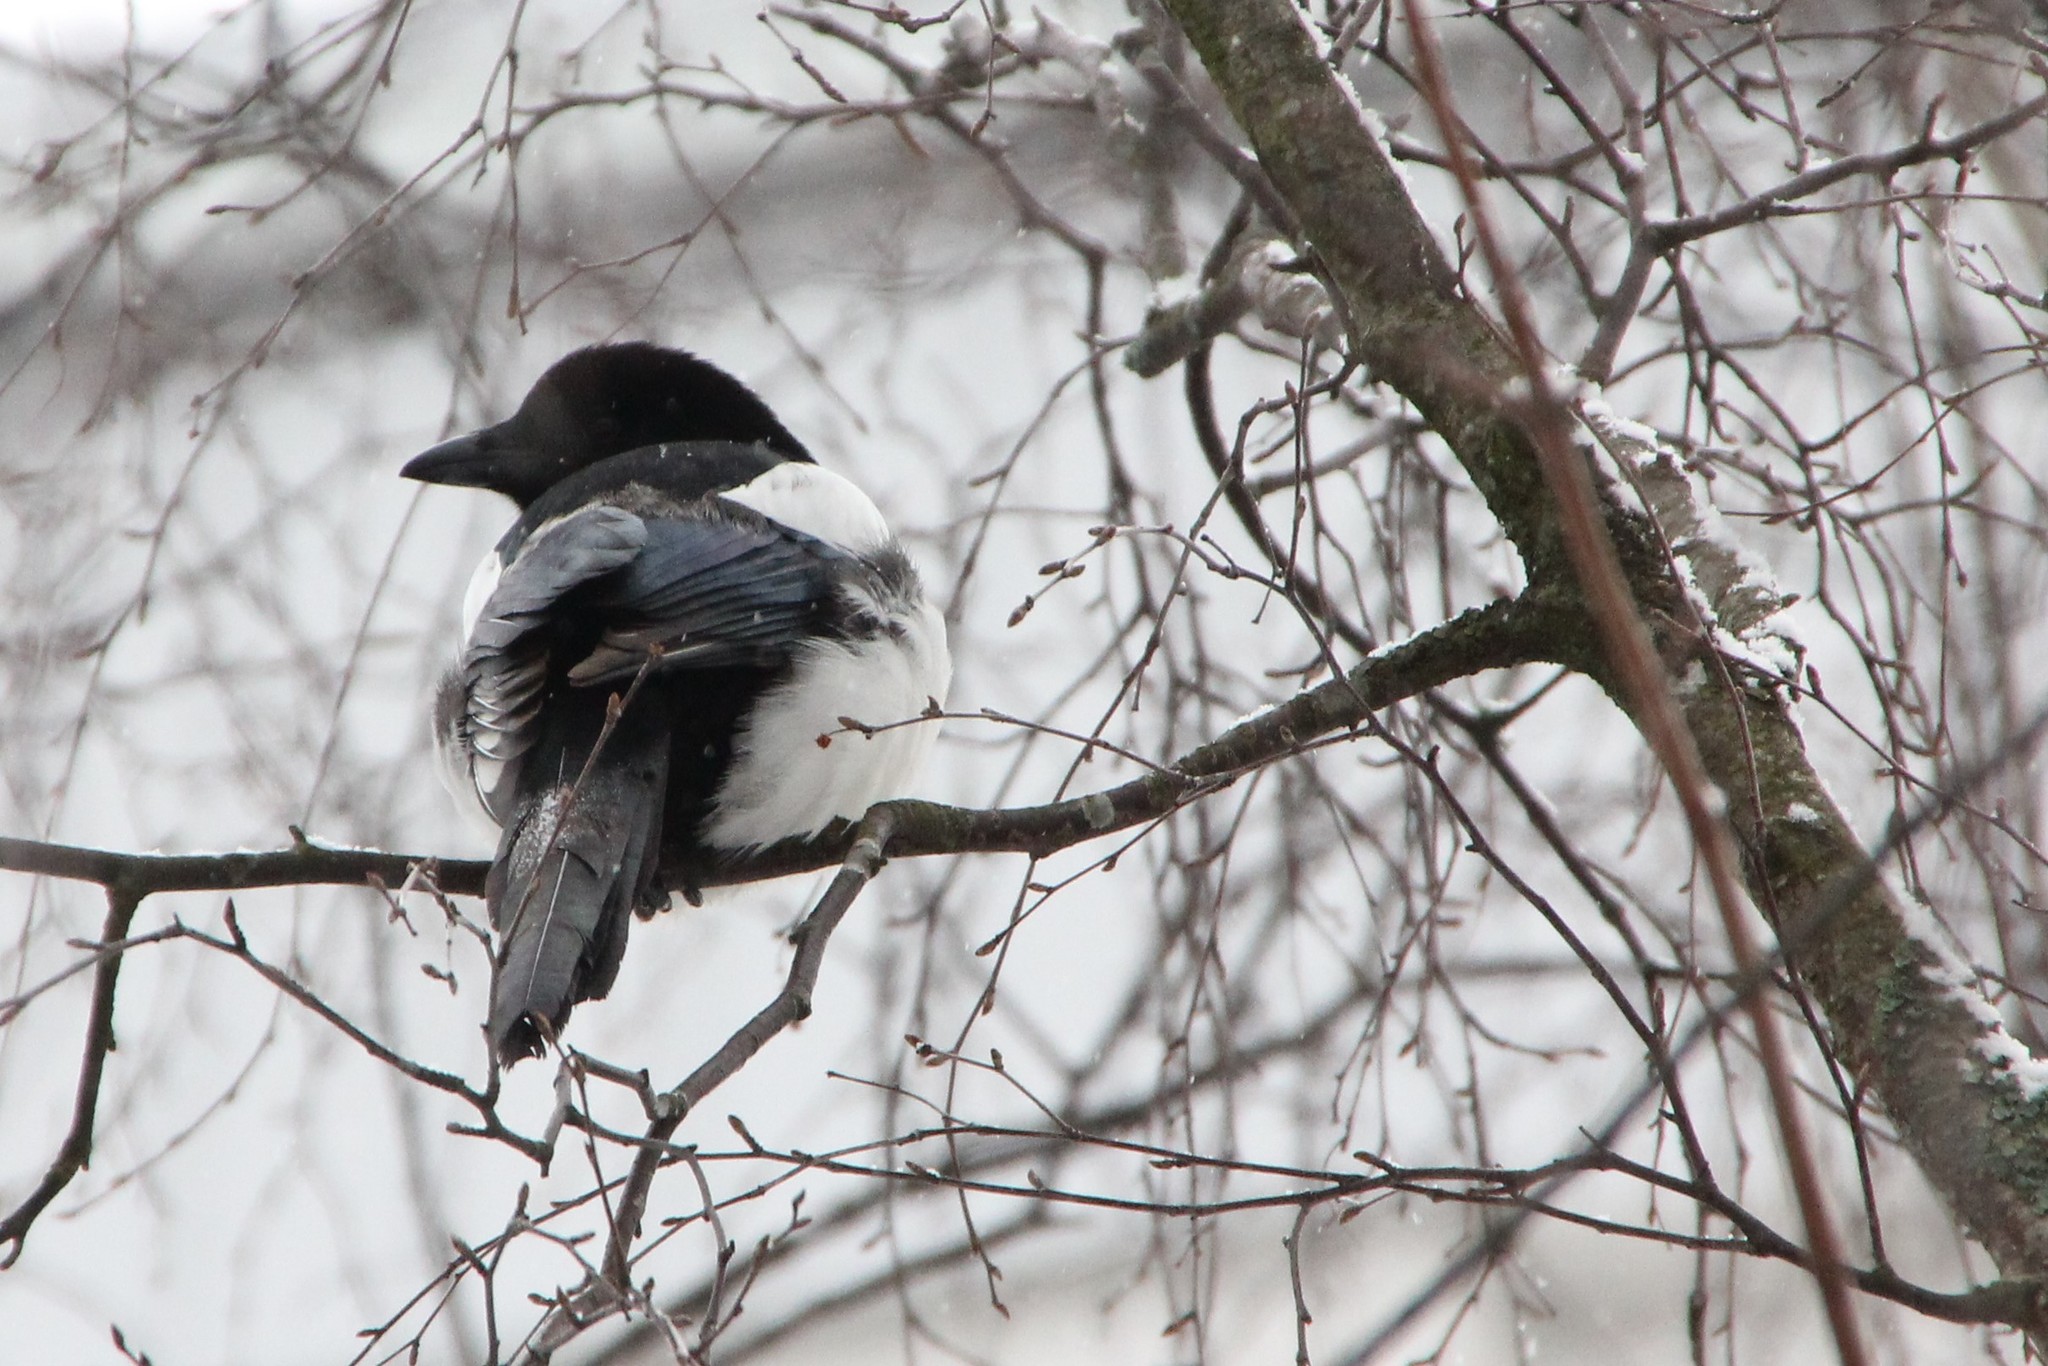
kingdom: Animalia
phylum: Chordata
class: Aves
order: Passeriformes
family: Corvidae
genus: Pica
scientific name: Pica pica
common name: Eurasian magpie
